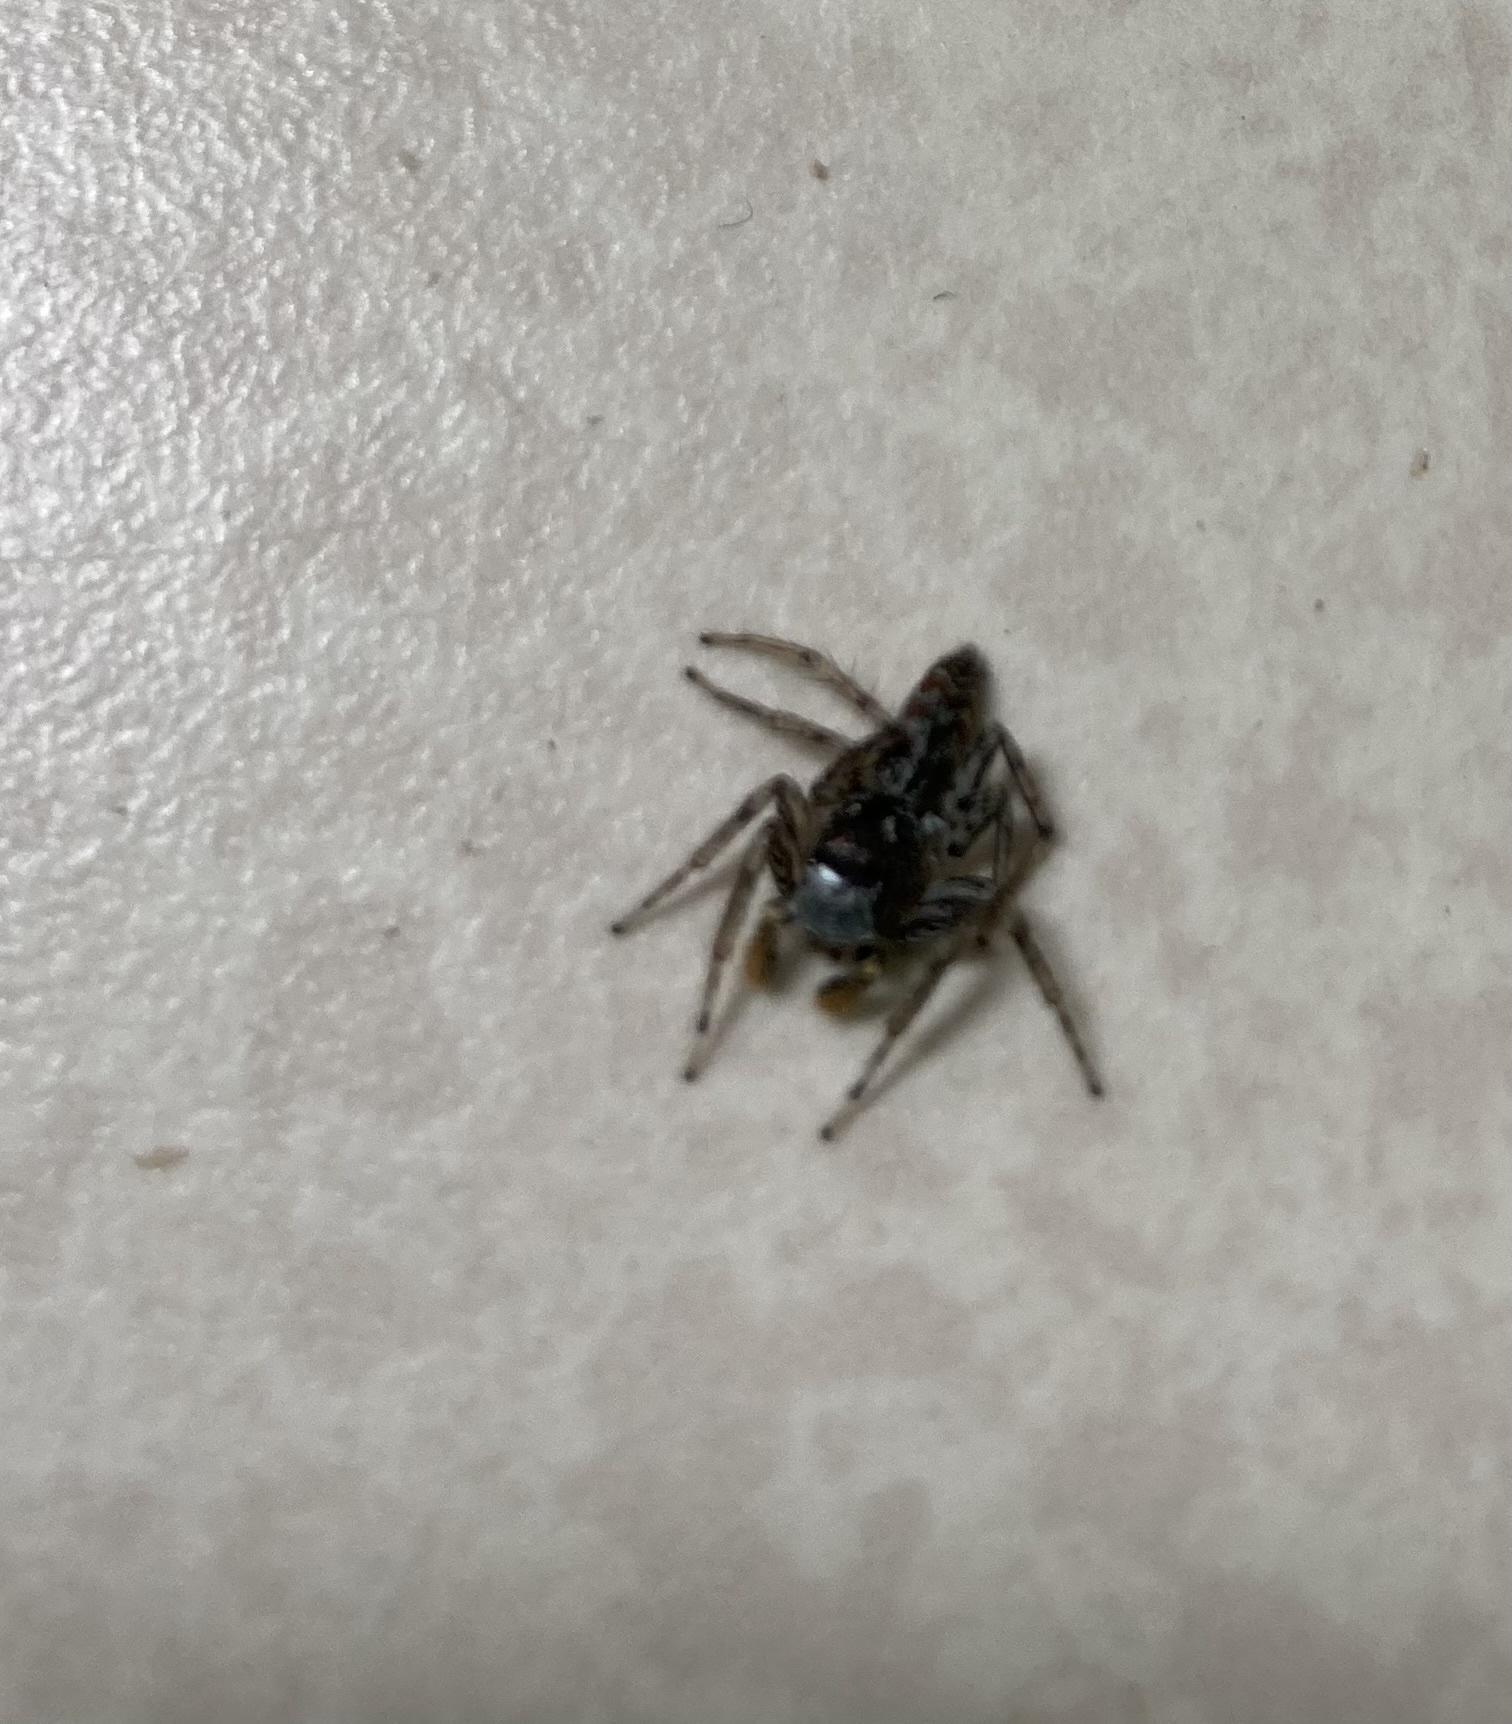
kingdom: Animalia
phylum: Arthropoda
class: Arachnida
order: Araneae
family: Salticidae
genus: Maevia
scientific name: Maevia inclemens
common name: Dimorphic jumper
